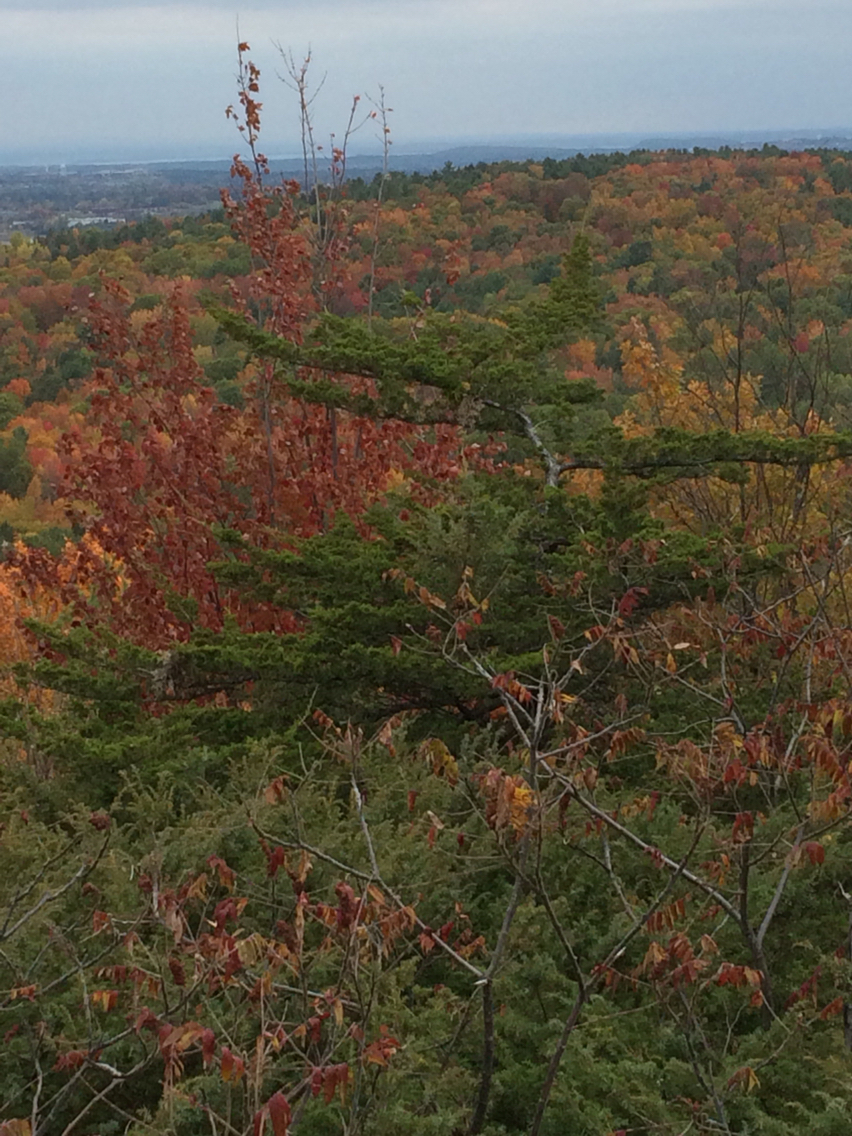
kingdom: Plantae
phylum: Tracheophyta
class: Pinopsida
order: Pinales
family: Cupressaceae
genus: Juniperus
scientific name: Juniperus virginiana
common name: Red juniper
